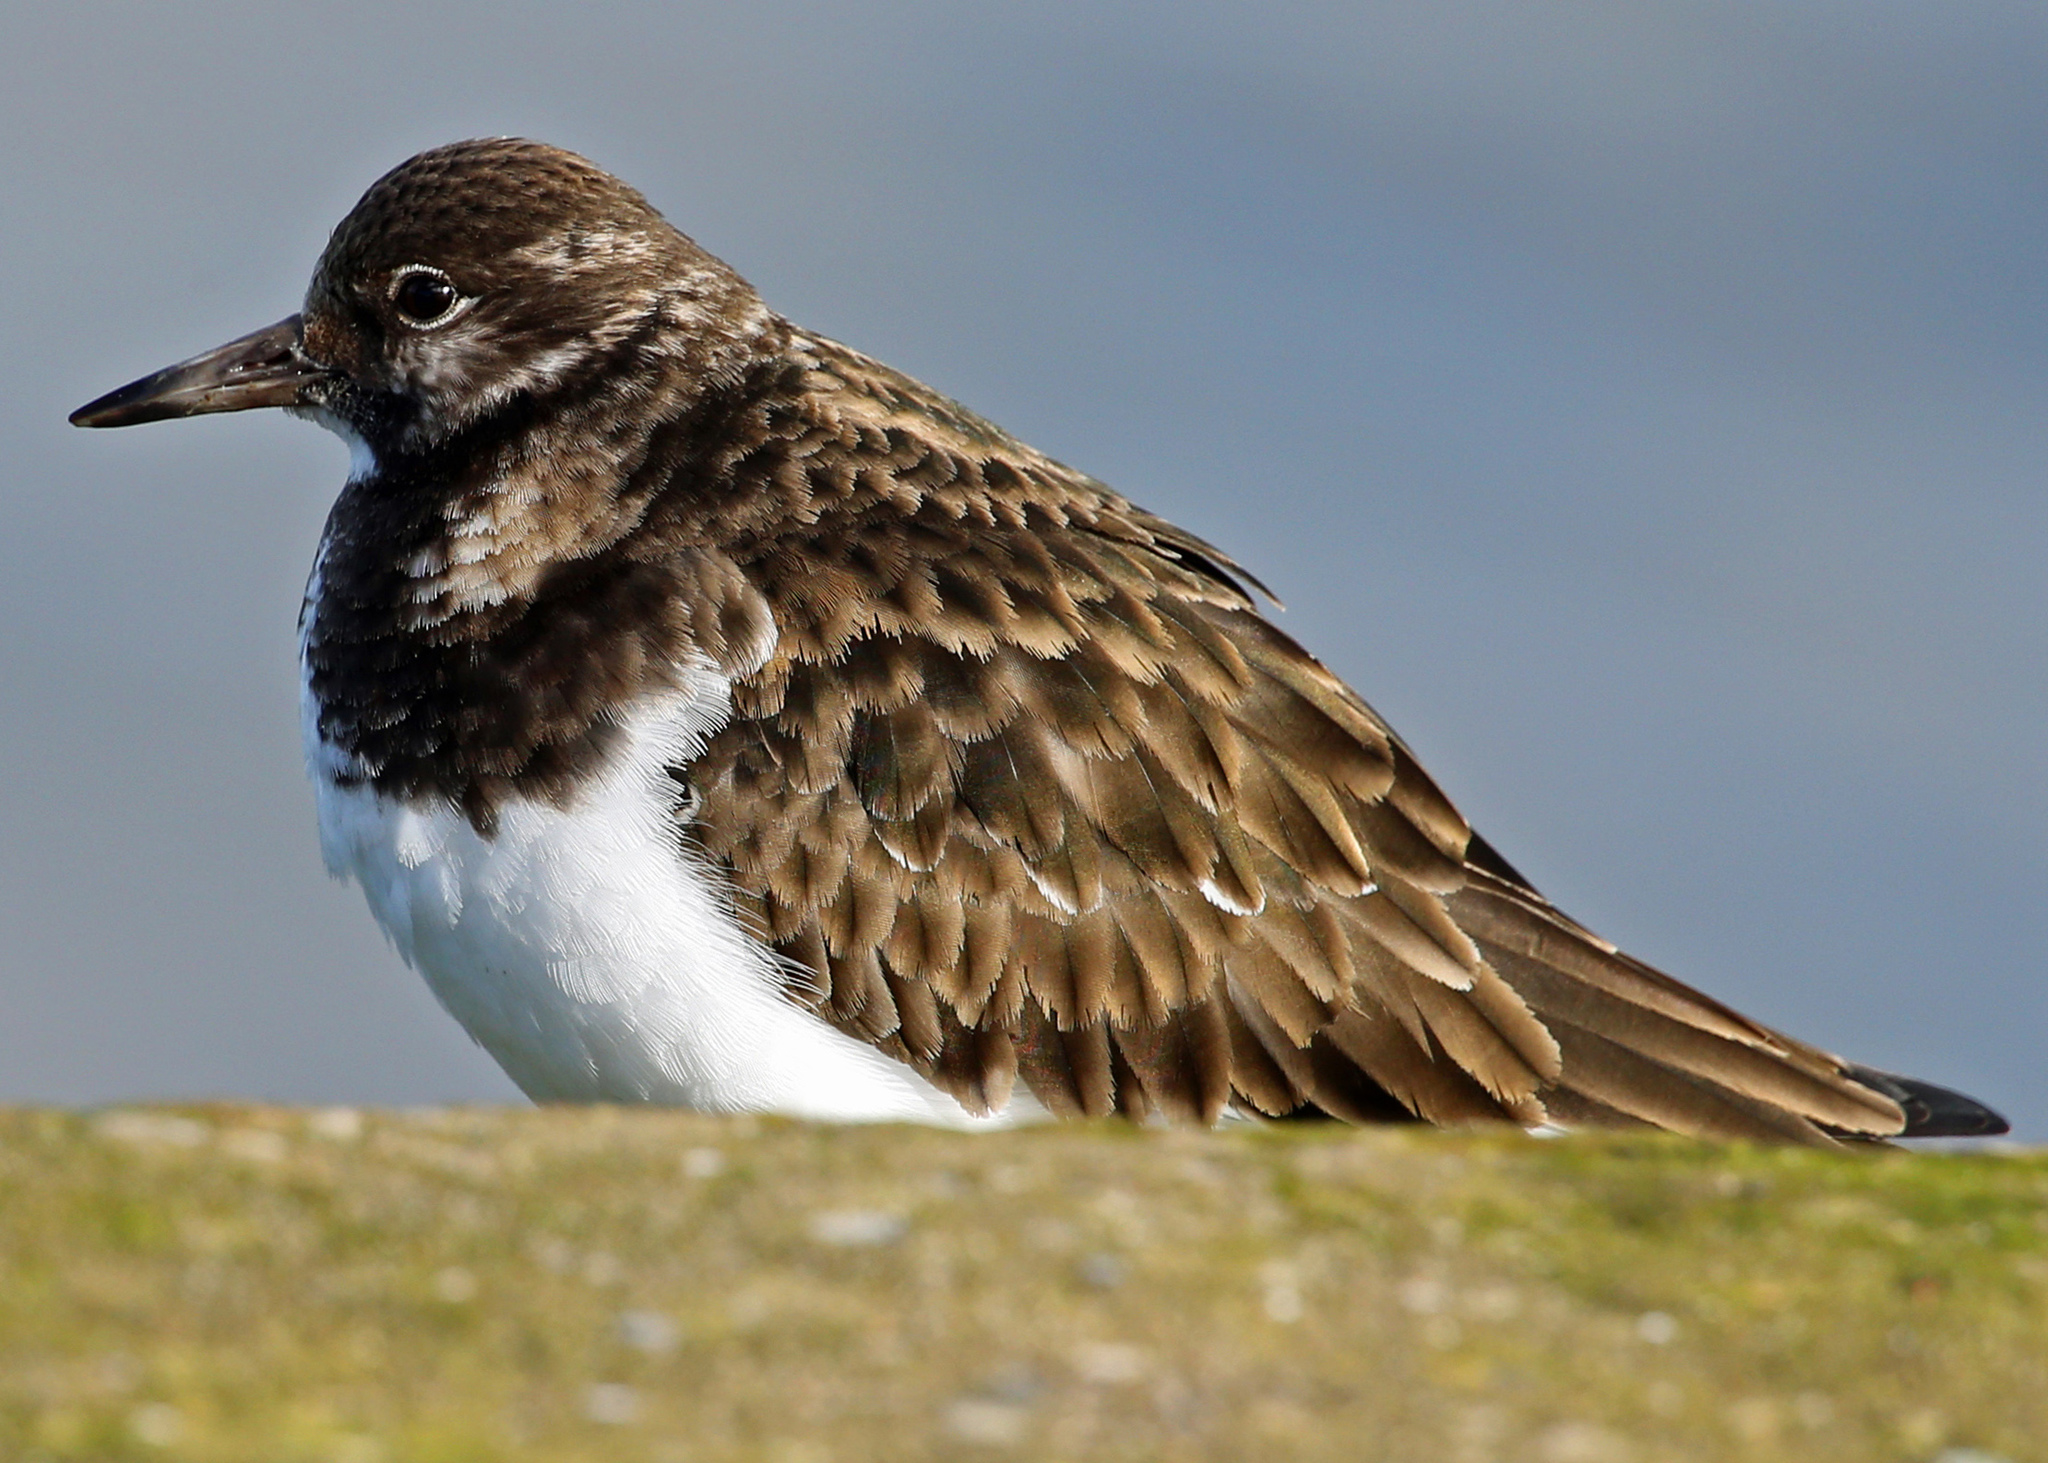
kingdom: Animalia
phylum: Chordata
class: Aves
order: Charadriiformes
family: Scolopacidae
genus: Arenaria
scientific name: Arenaria interpres
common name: Ruddy turnstone
